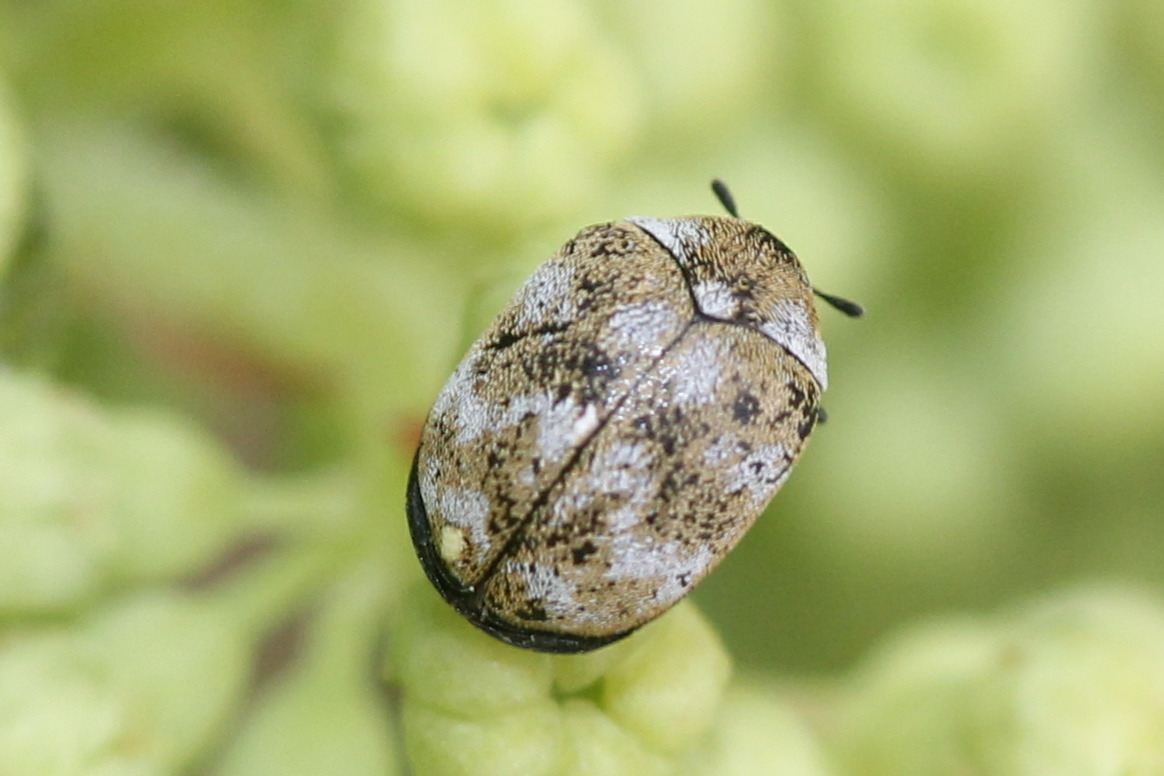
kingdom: Animalia
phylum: Arthropoda
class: Insecta
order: Coleoptera
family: Dermestidae
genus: Anthrenus
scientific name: Anthrenus verbasci
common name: Varied carpet beetle
